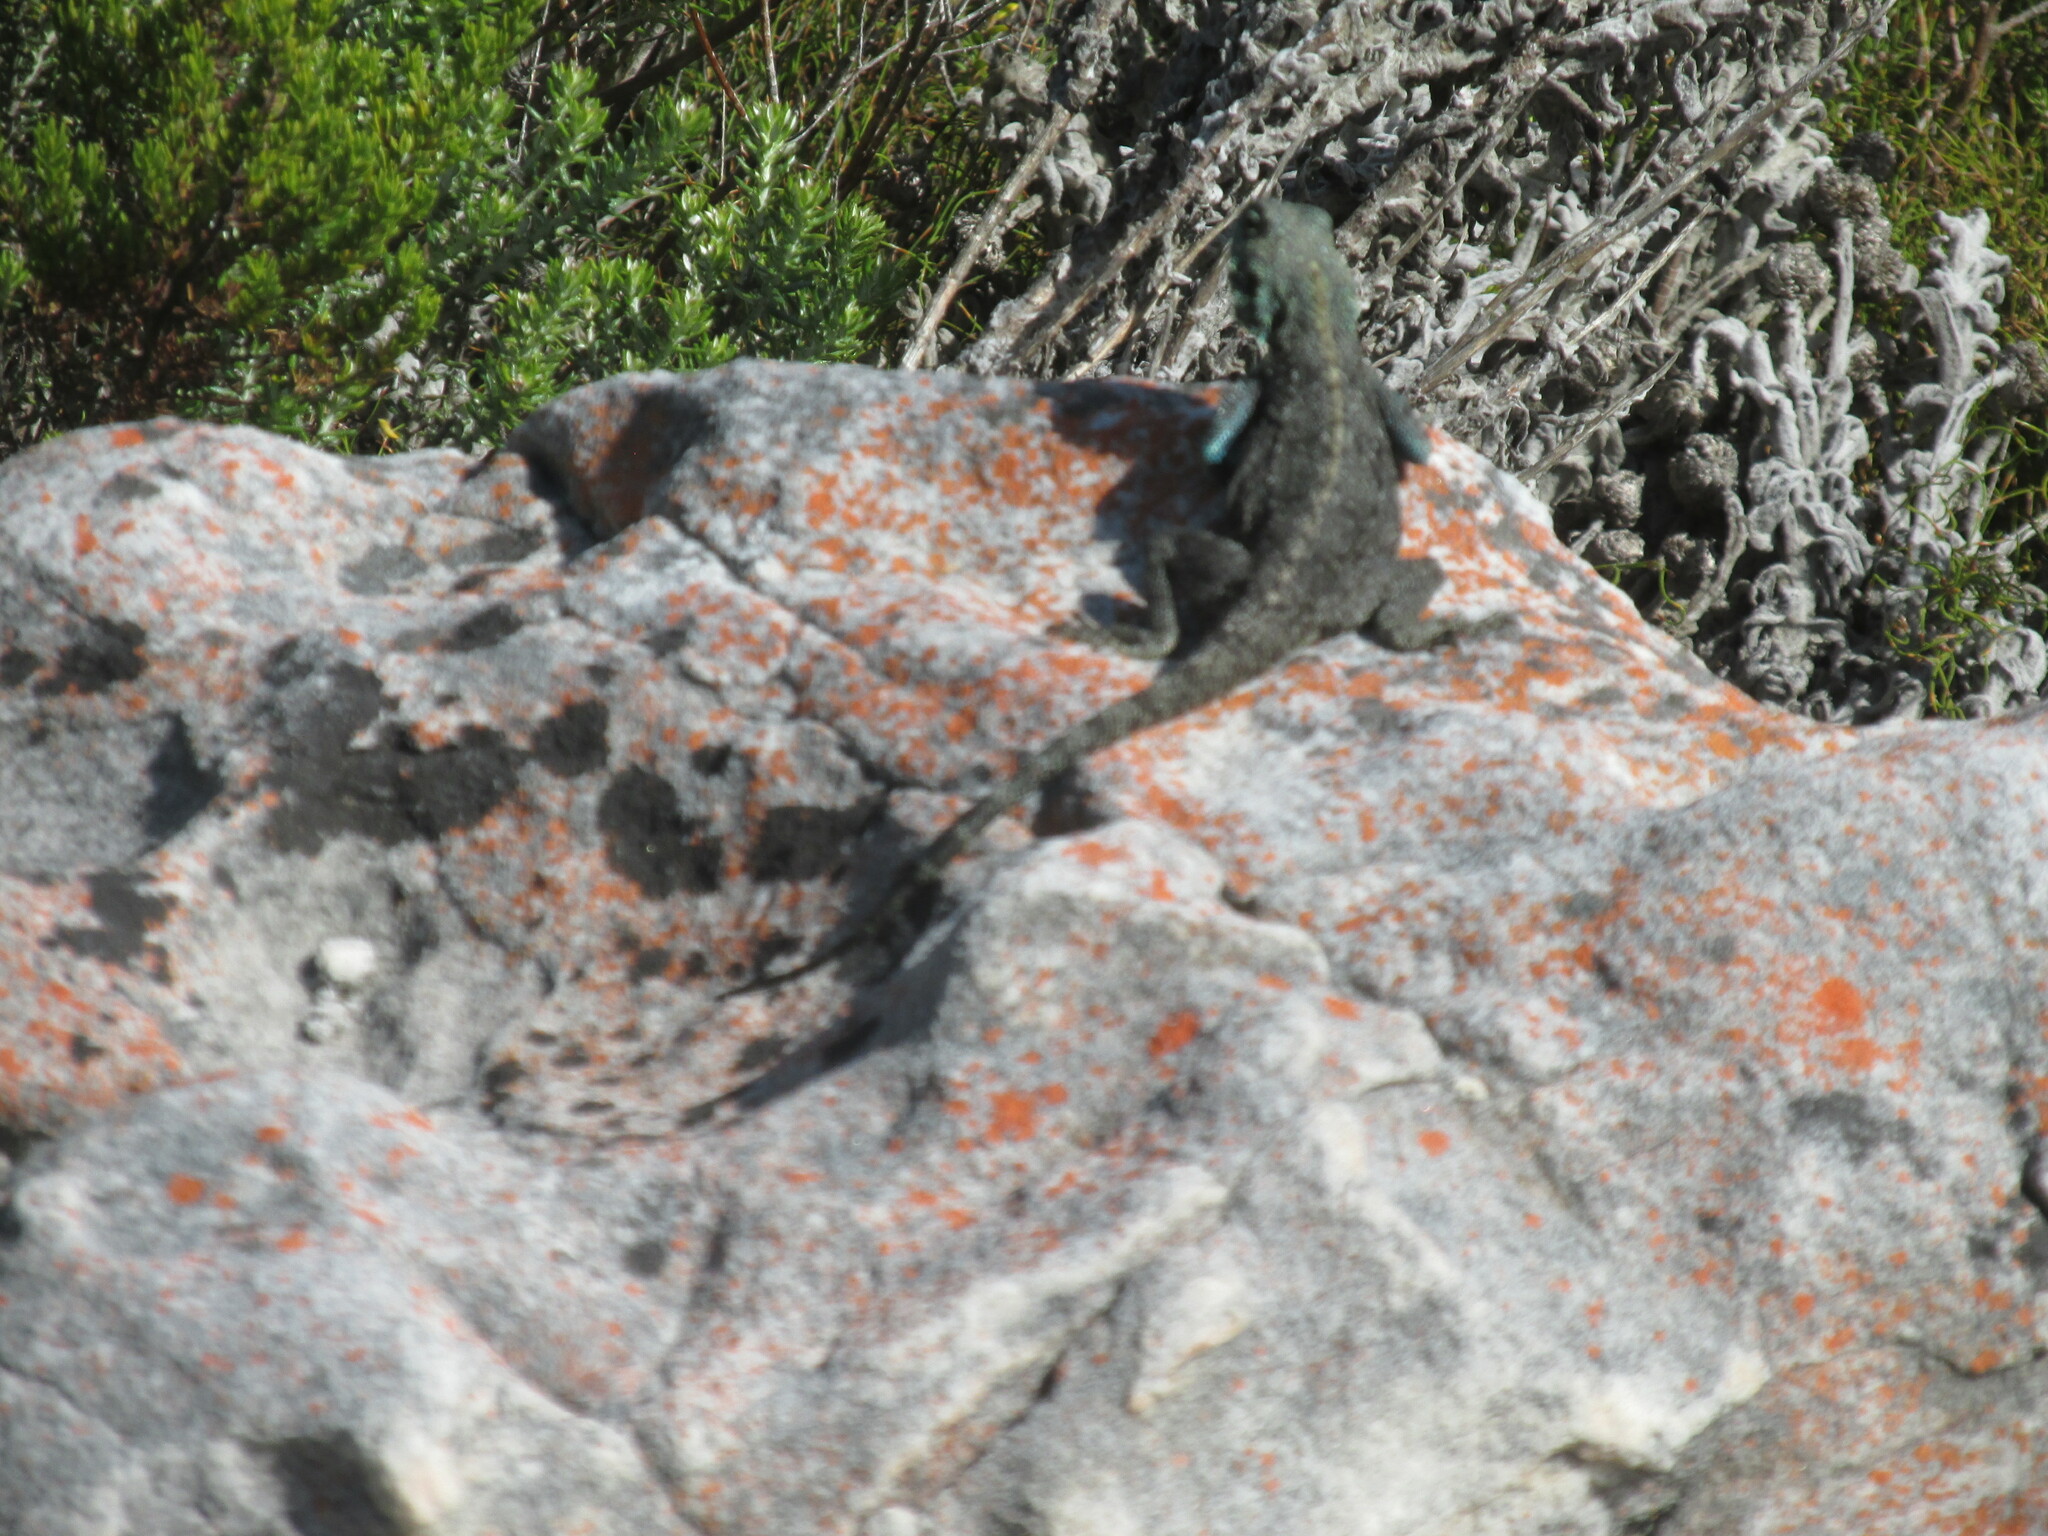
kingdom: Animalia
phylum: Chordata
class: Squamata
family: Agamidae
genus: Agama
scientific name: Agama atra
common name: Southern african rock agama
